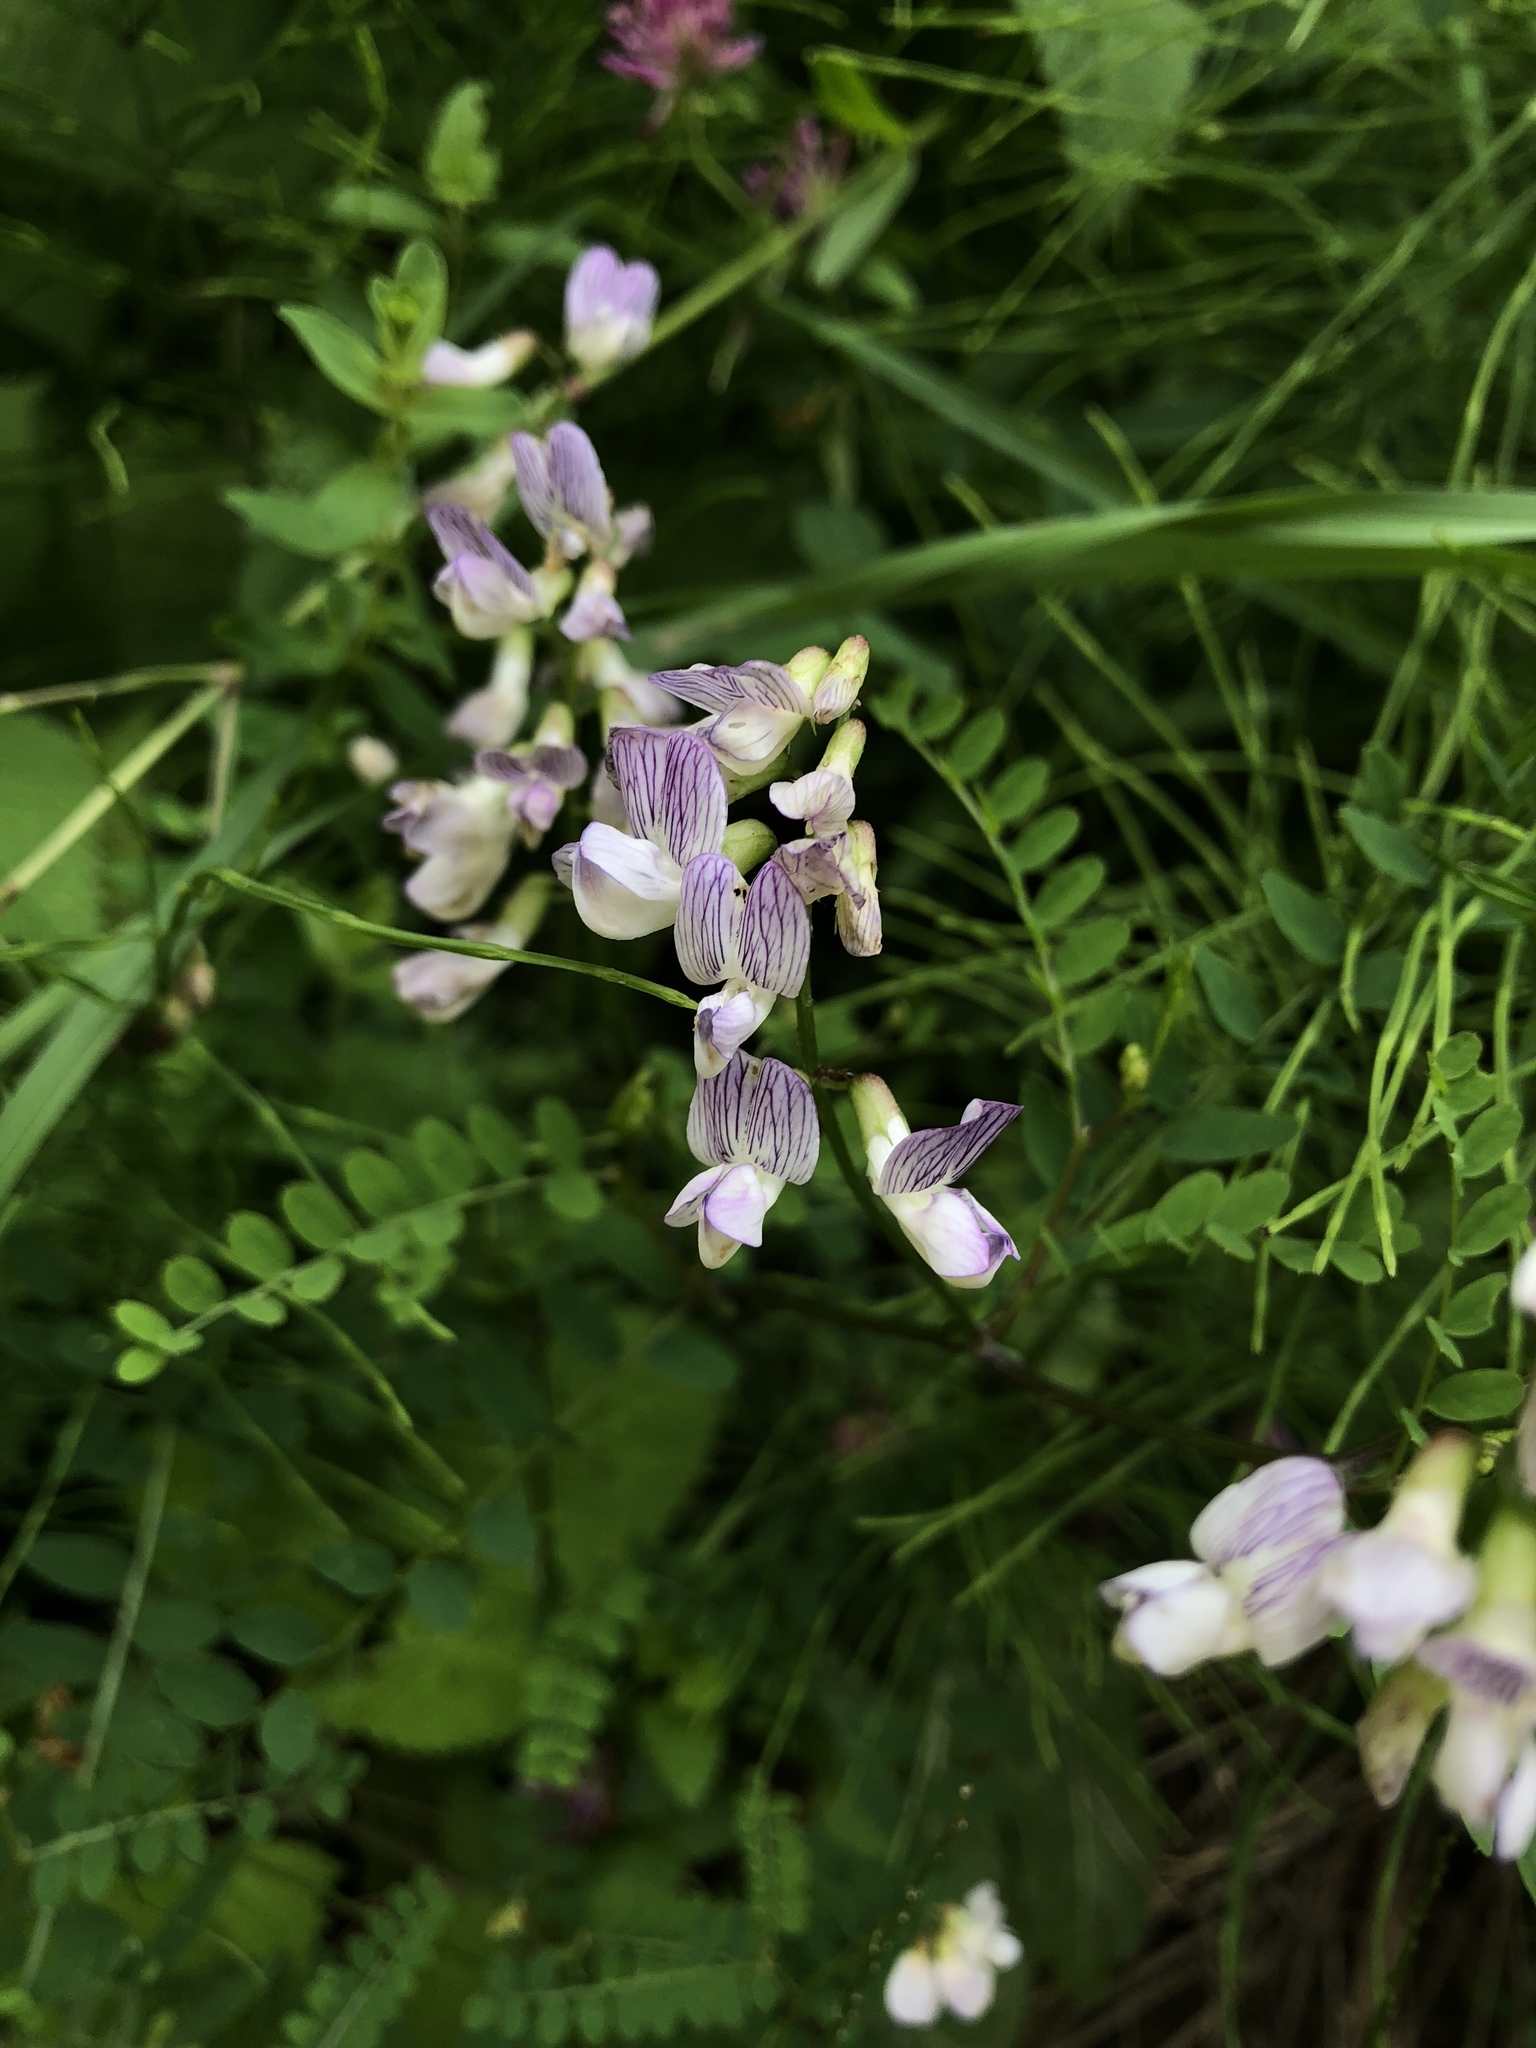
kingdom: Plantae
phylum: Tracheophyta
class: Magnoliopsida
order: Fabales
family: Fabaceae
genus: Vicia
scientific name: Vicia sylvatica
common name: Wood vetch
